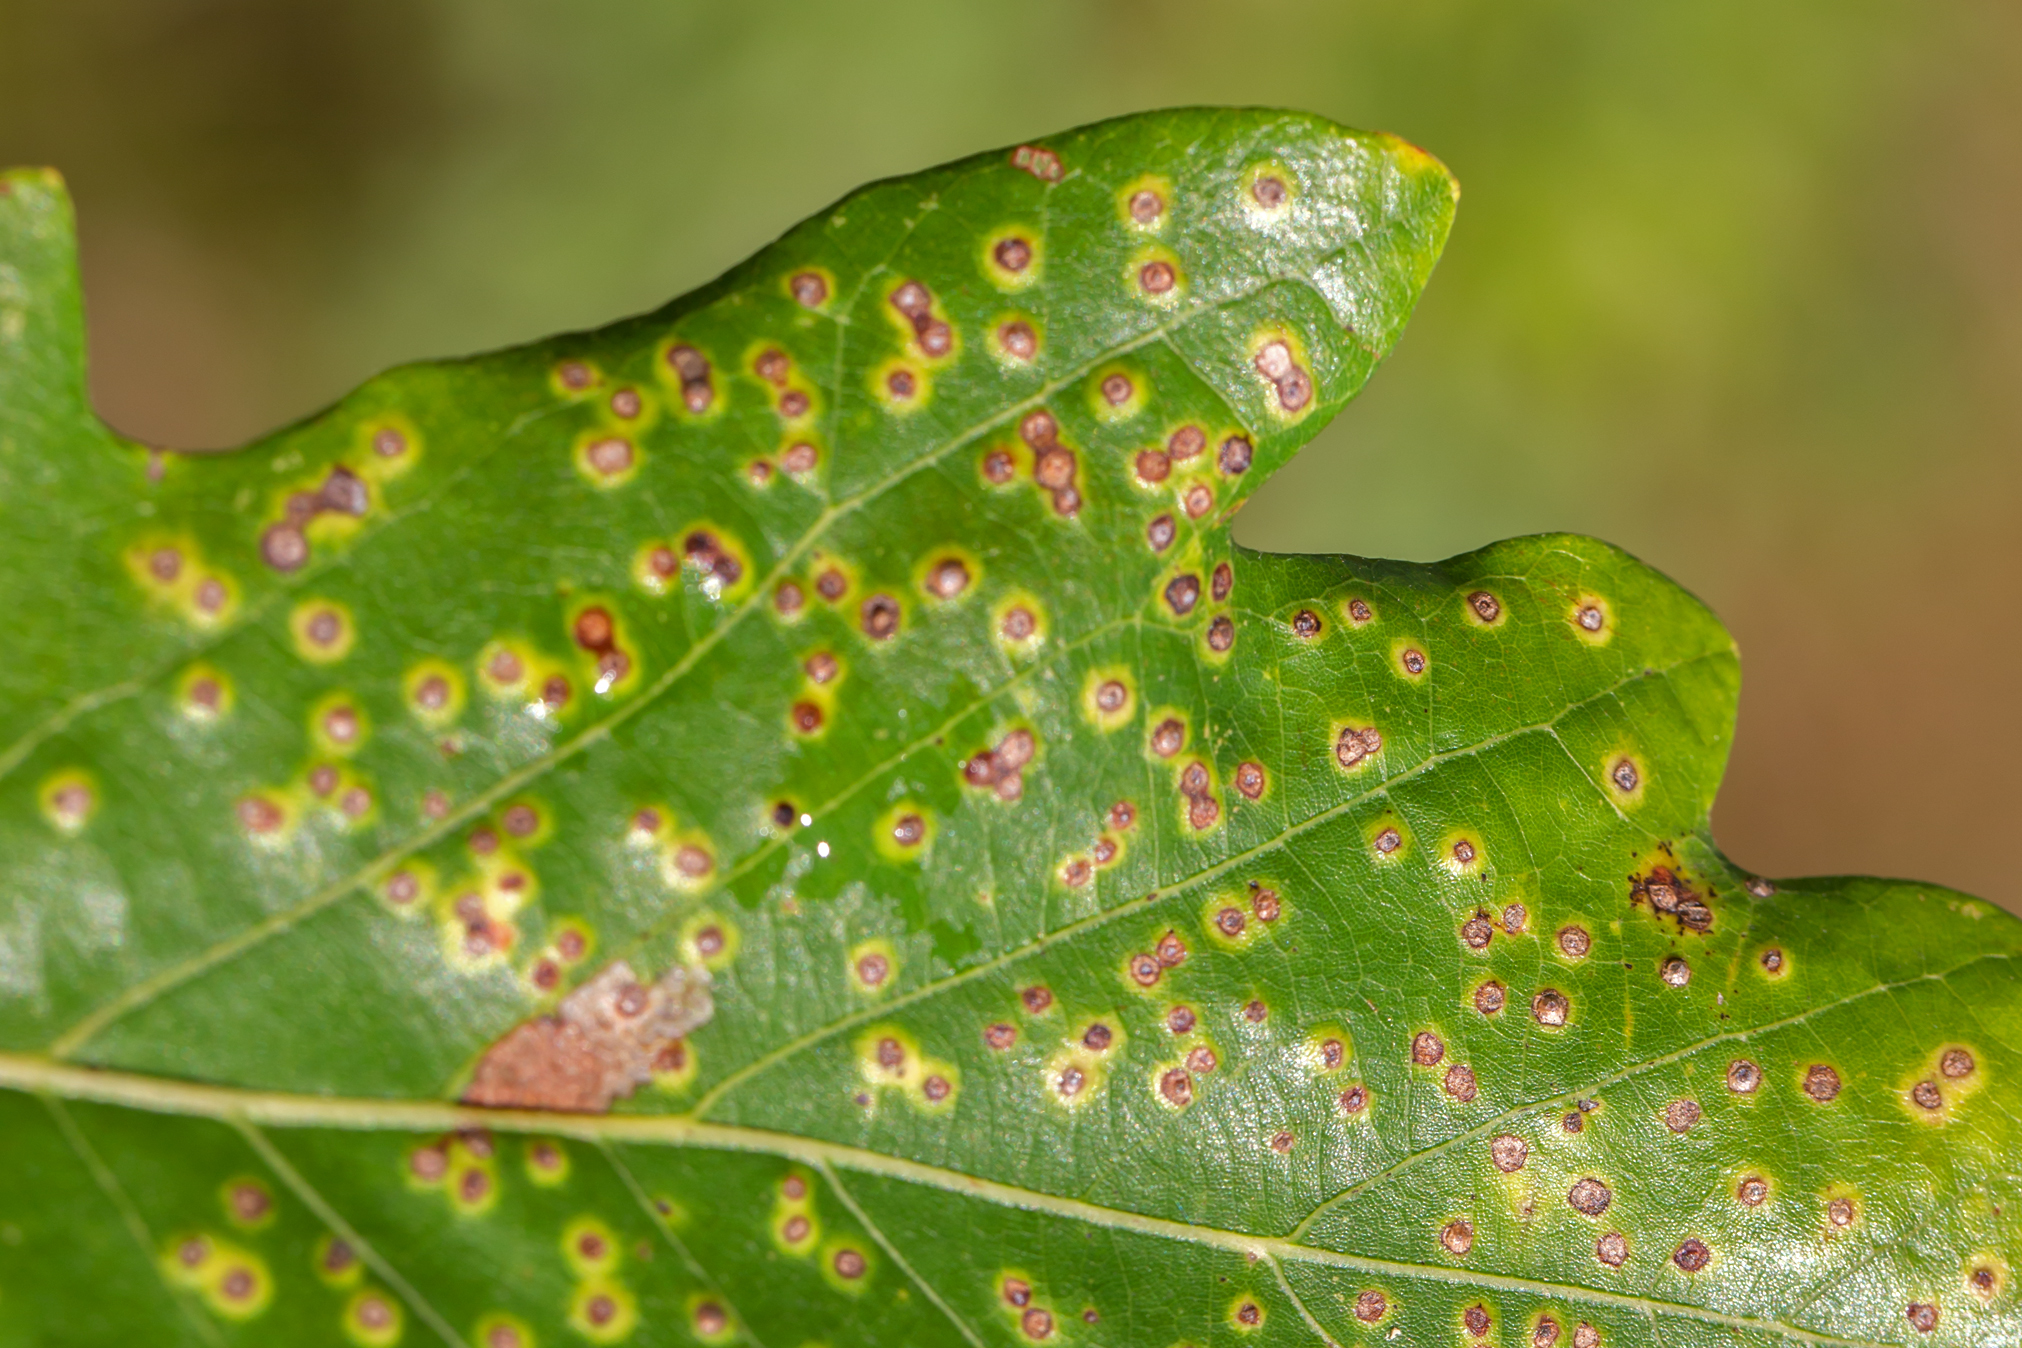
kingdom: Animalia
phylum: Arthropoda
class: Insecta
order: Hymenoptera
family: Cynipidae
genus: Neuroterus
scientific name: Neuroterus
